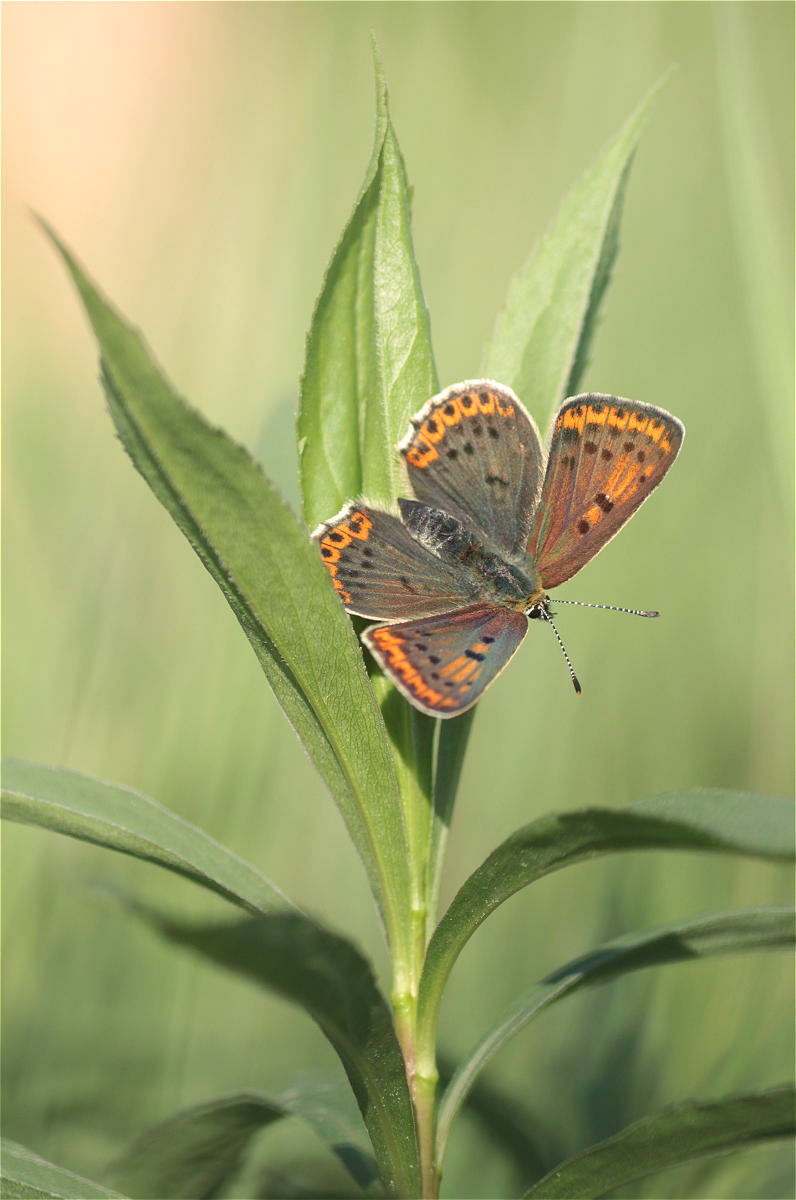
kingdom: Animalia
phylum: Arthropoda
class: Insecta
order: Lepidoptera
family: Lycaenidae
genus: Loweia
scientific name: Loweia tityrus
